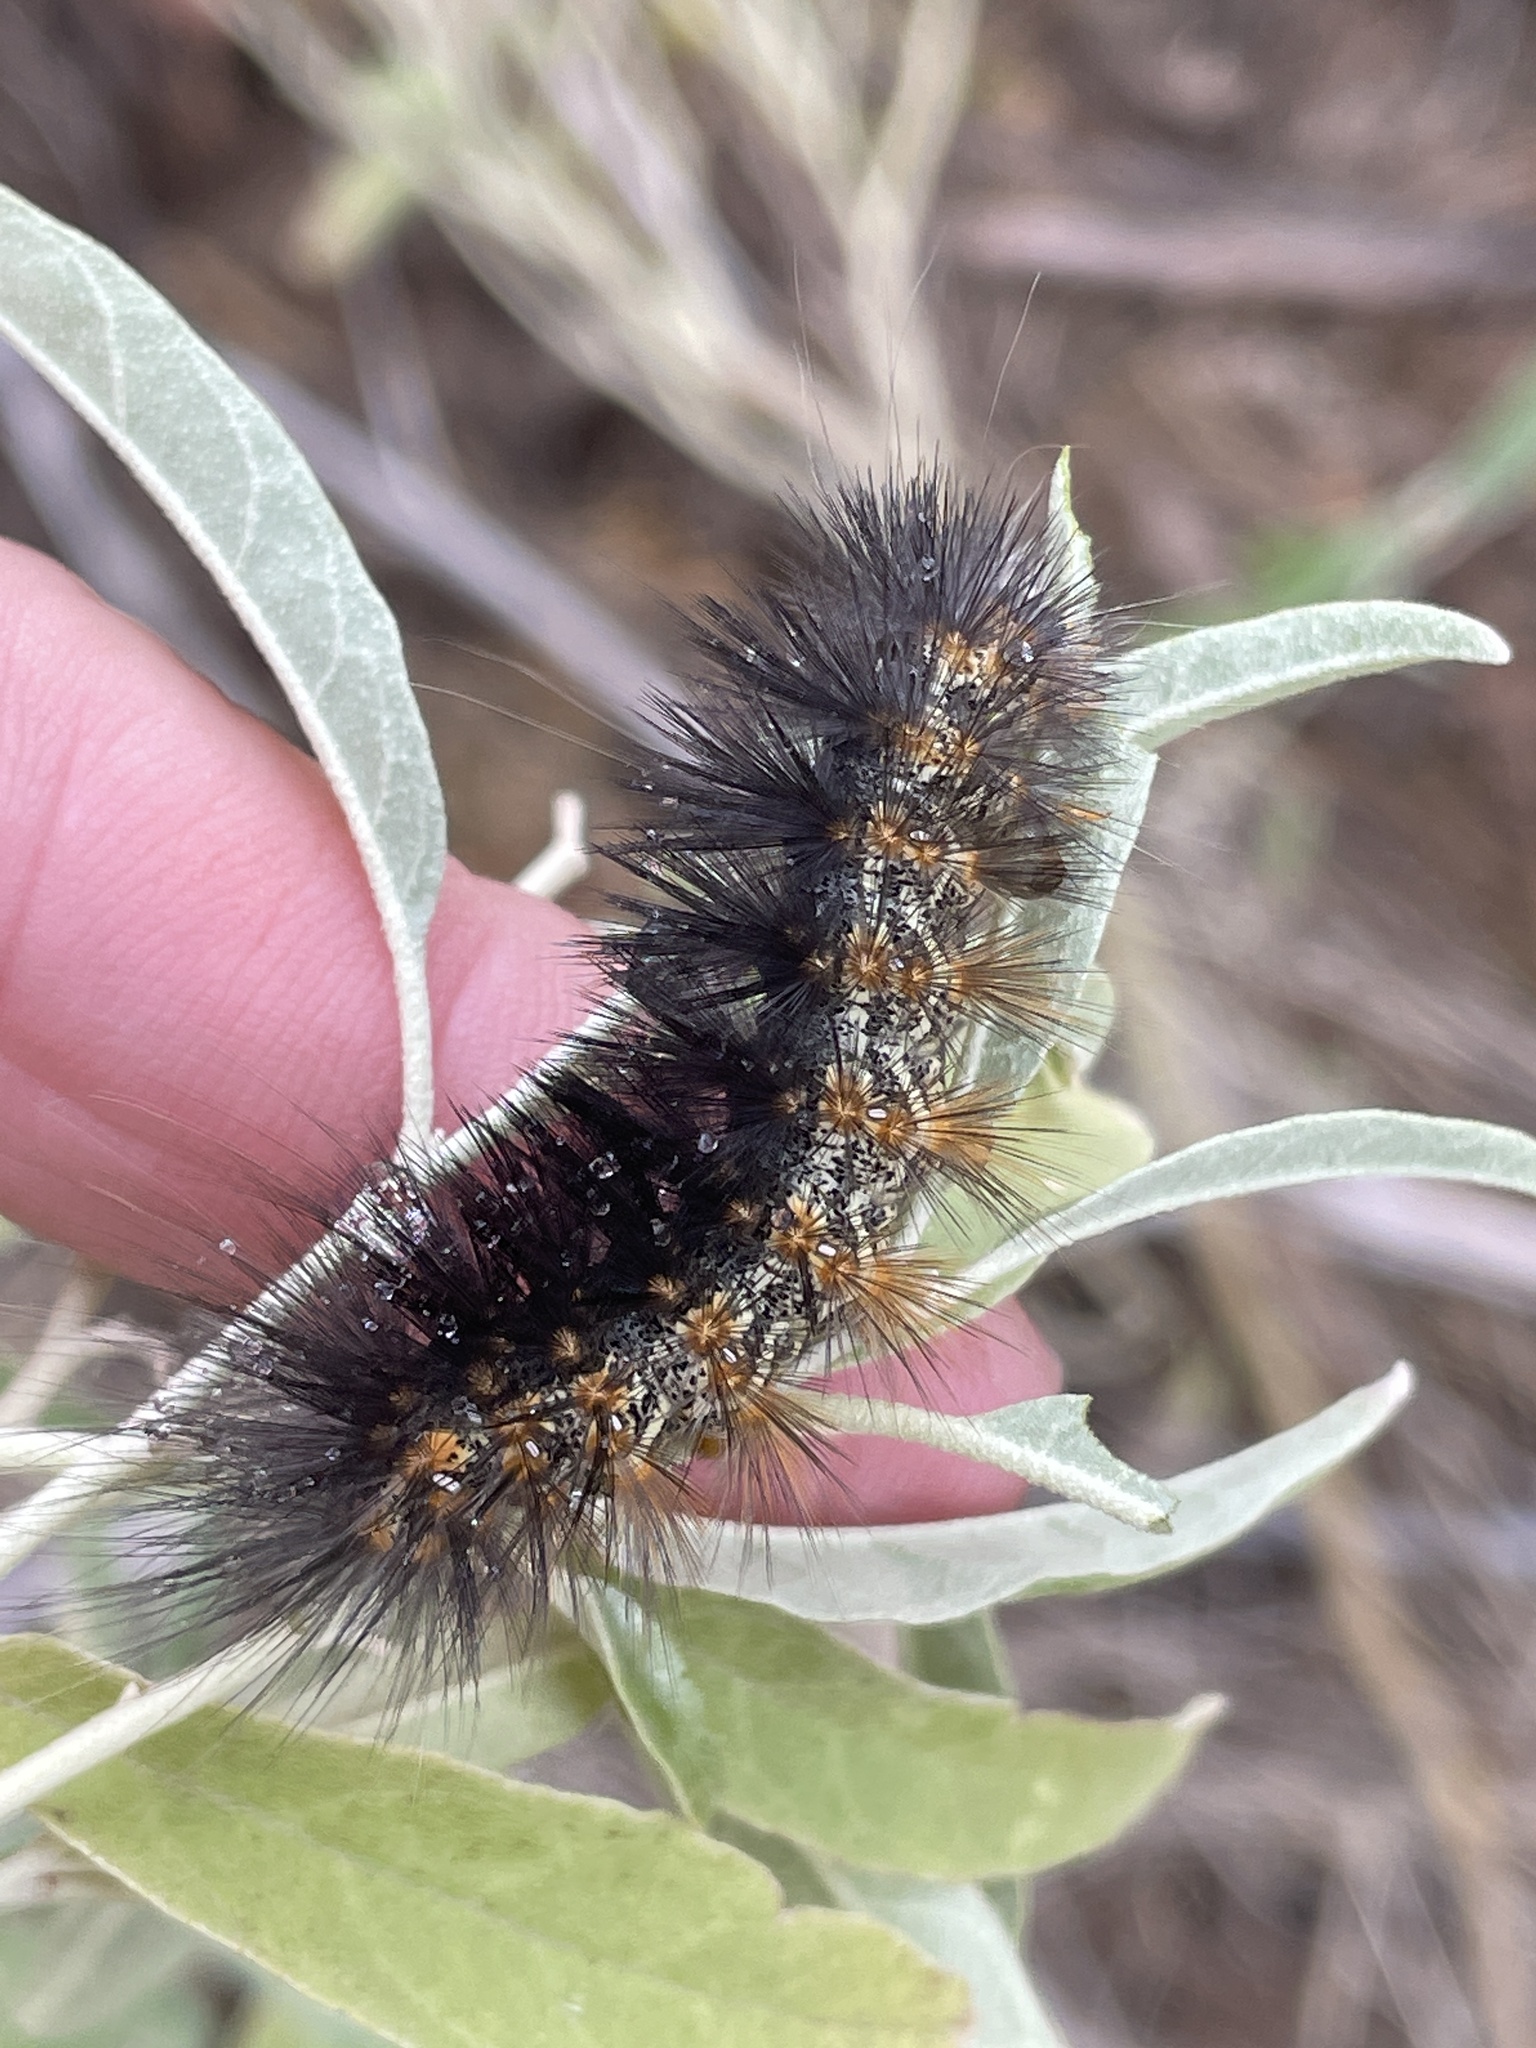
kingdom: Animalia
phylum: Arthropoda
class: Insecta
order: Lepidoptera
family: Erebidae
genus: Estigmene
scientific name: Estigmene acrea
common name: Salt marsh moth
